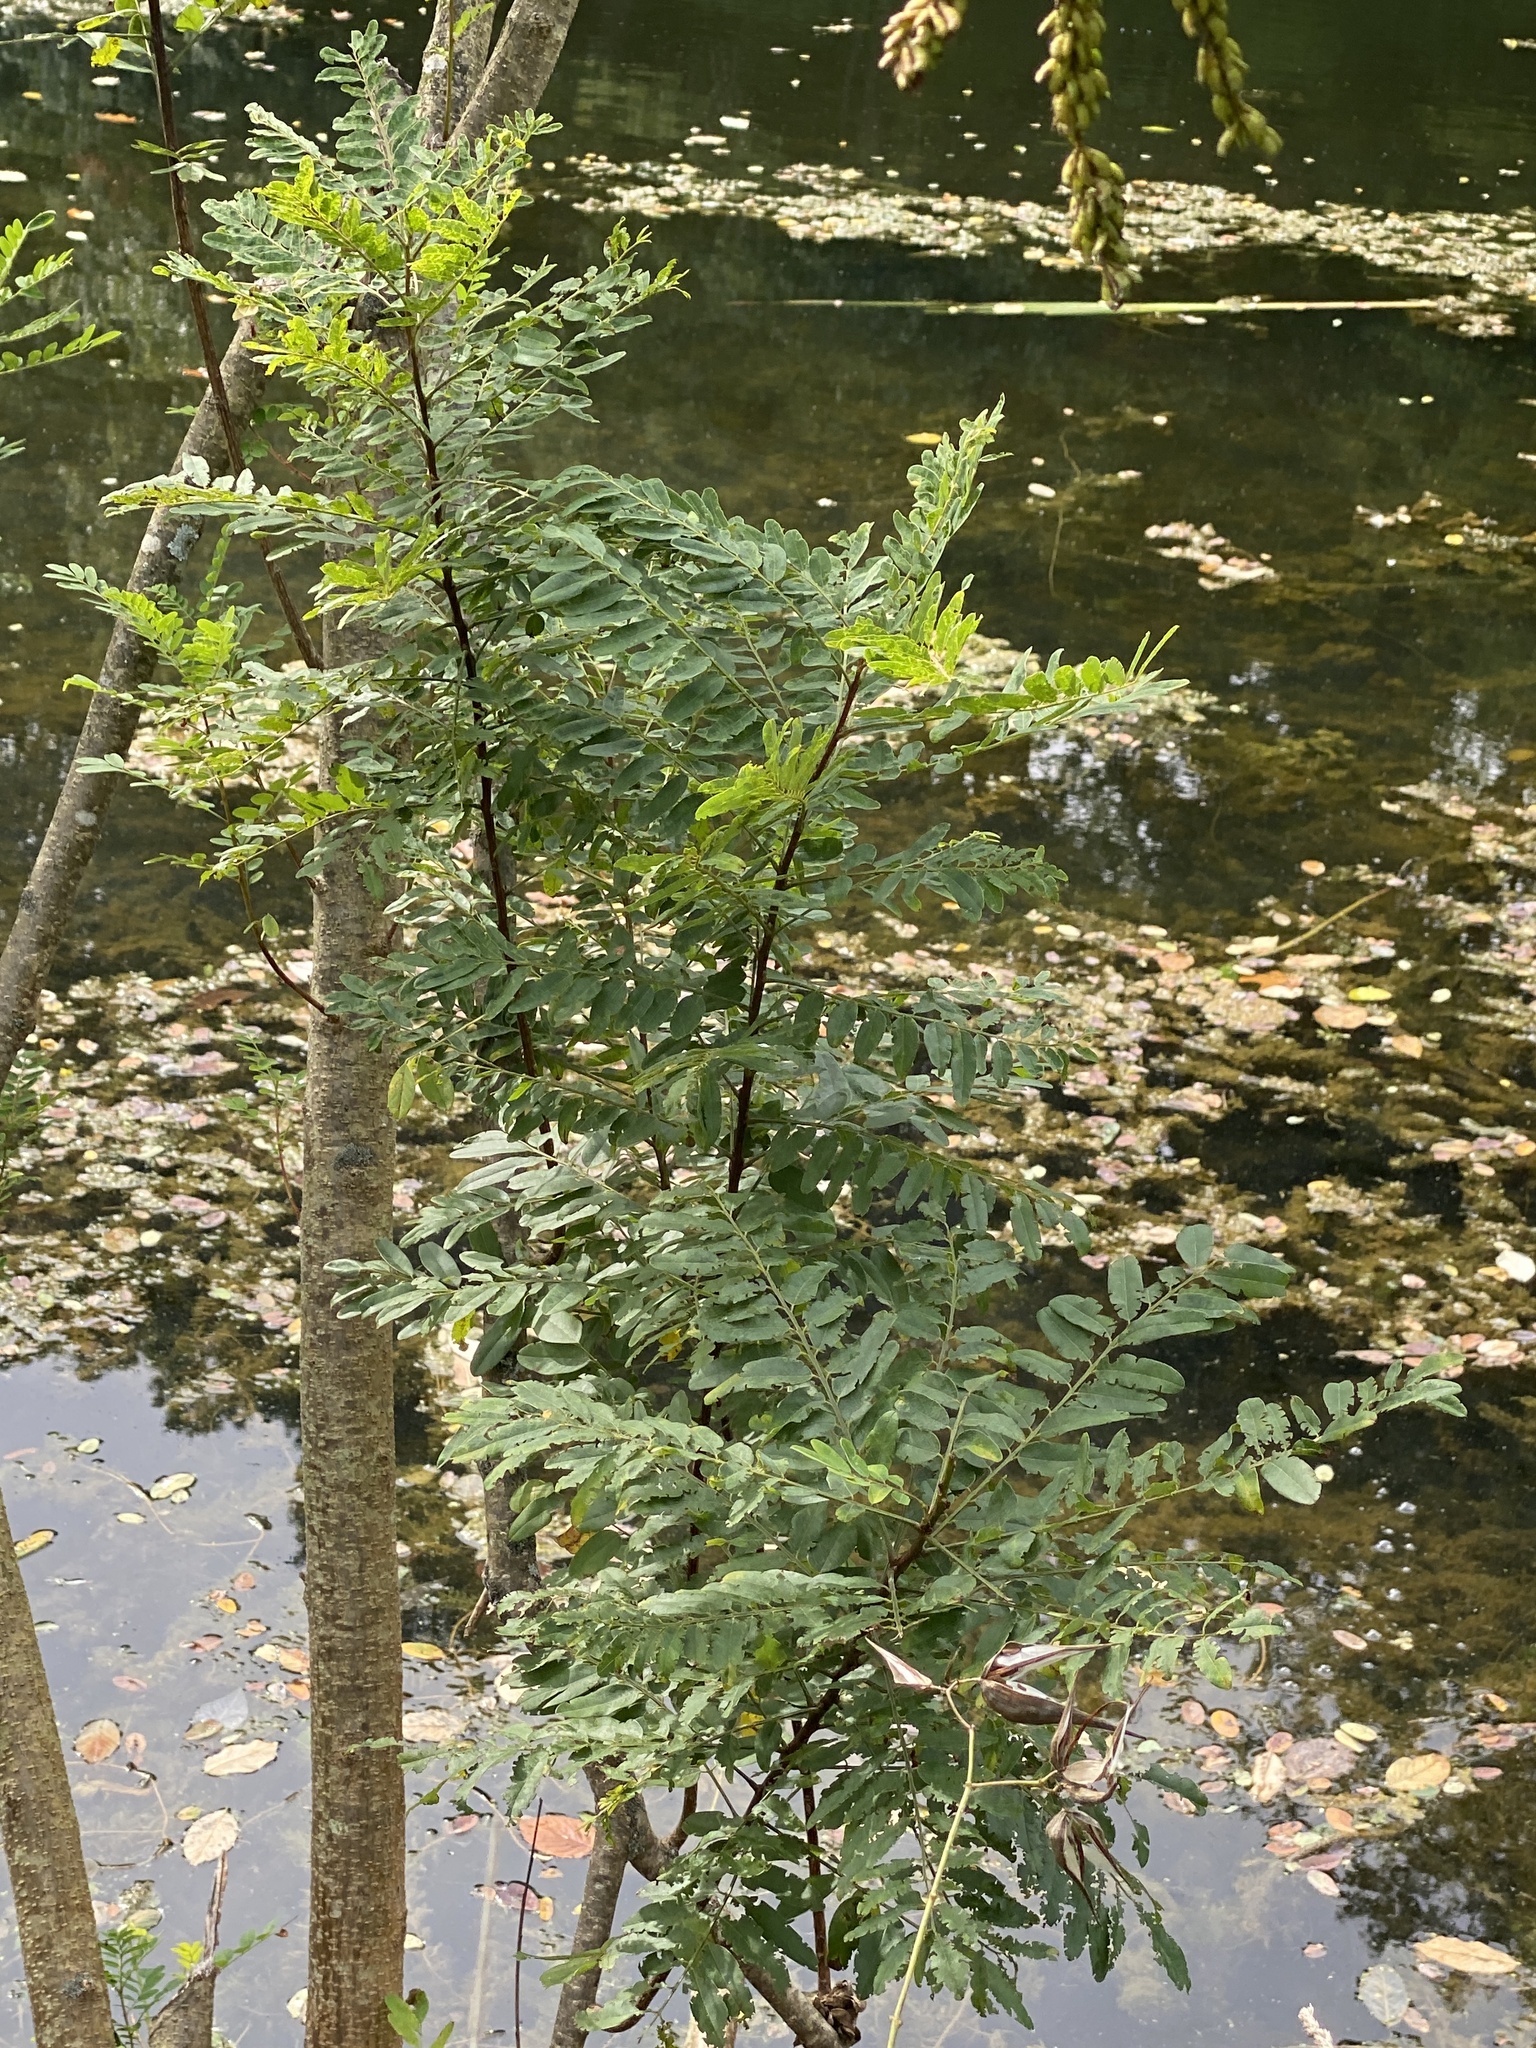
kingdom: Plantae
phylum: Tracheophyta
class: Magnoliopsida
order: Fabales
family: Fabaceae
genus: Amorpha
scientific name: Amorpha fruticosa
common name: False indigo
